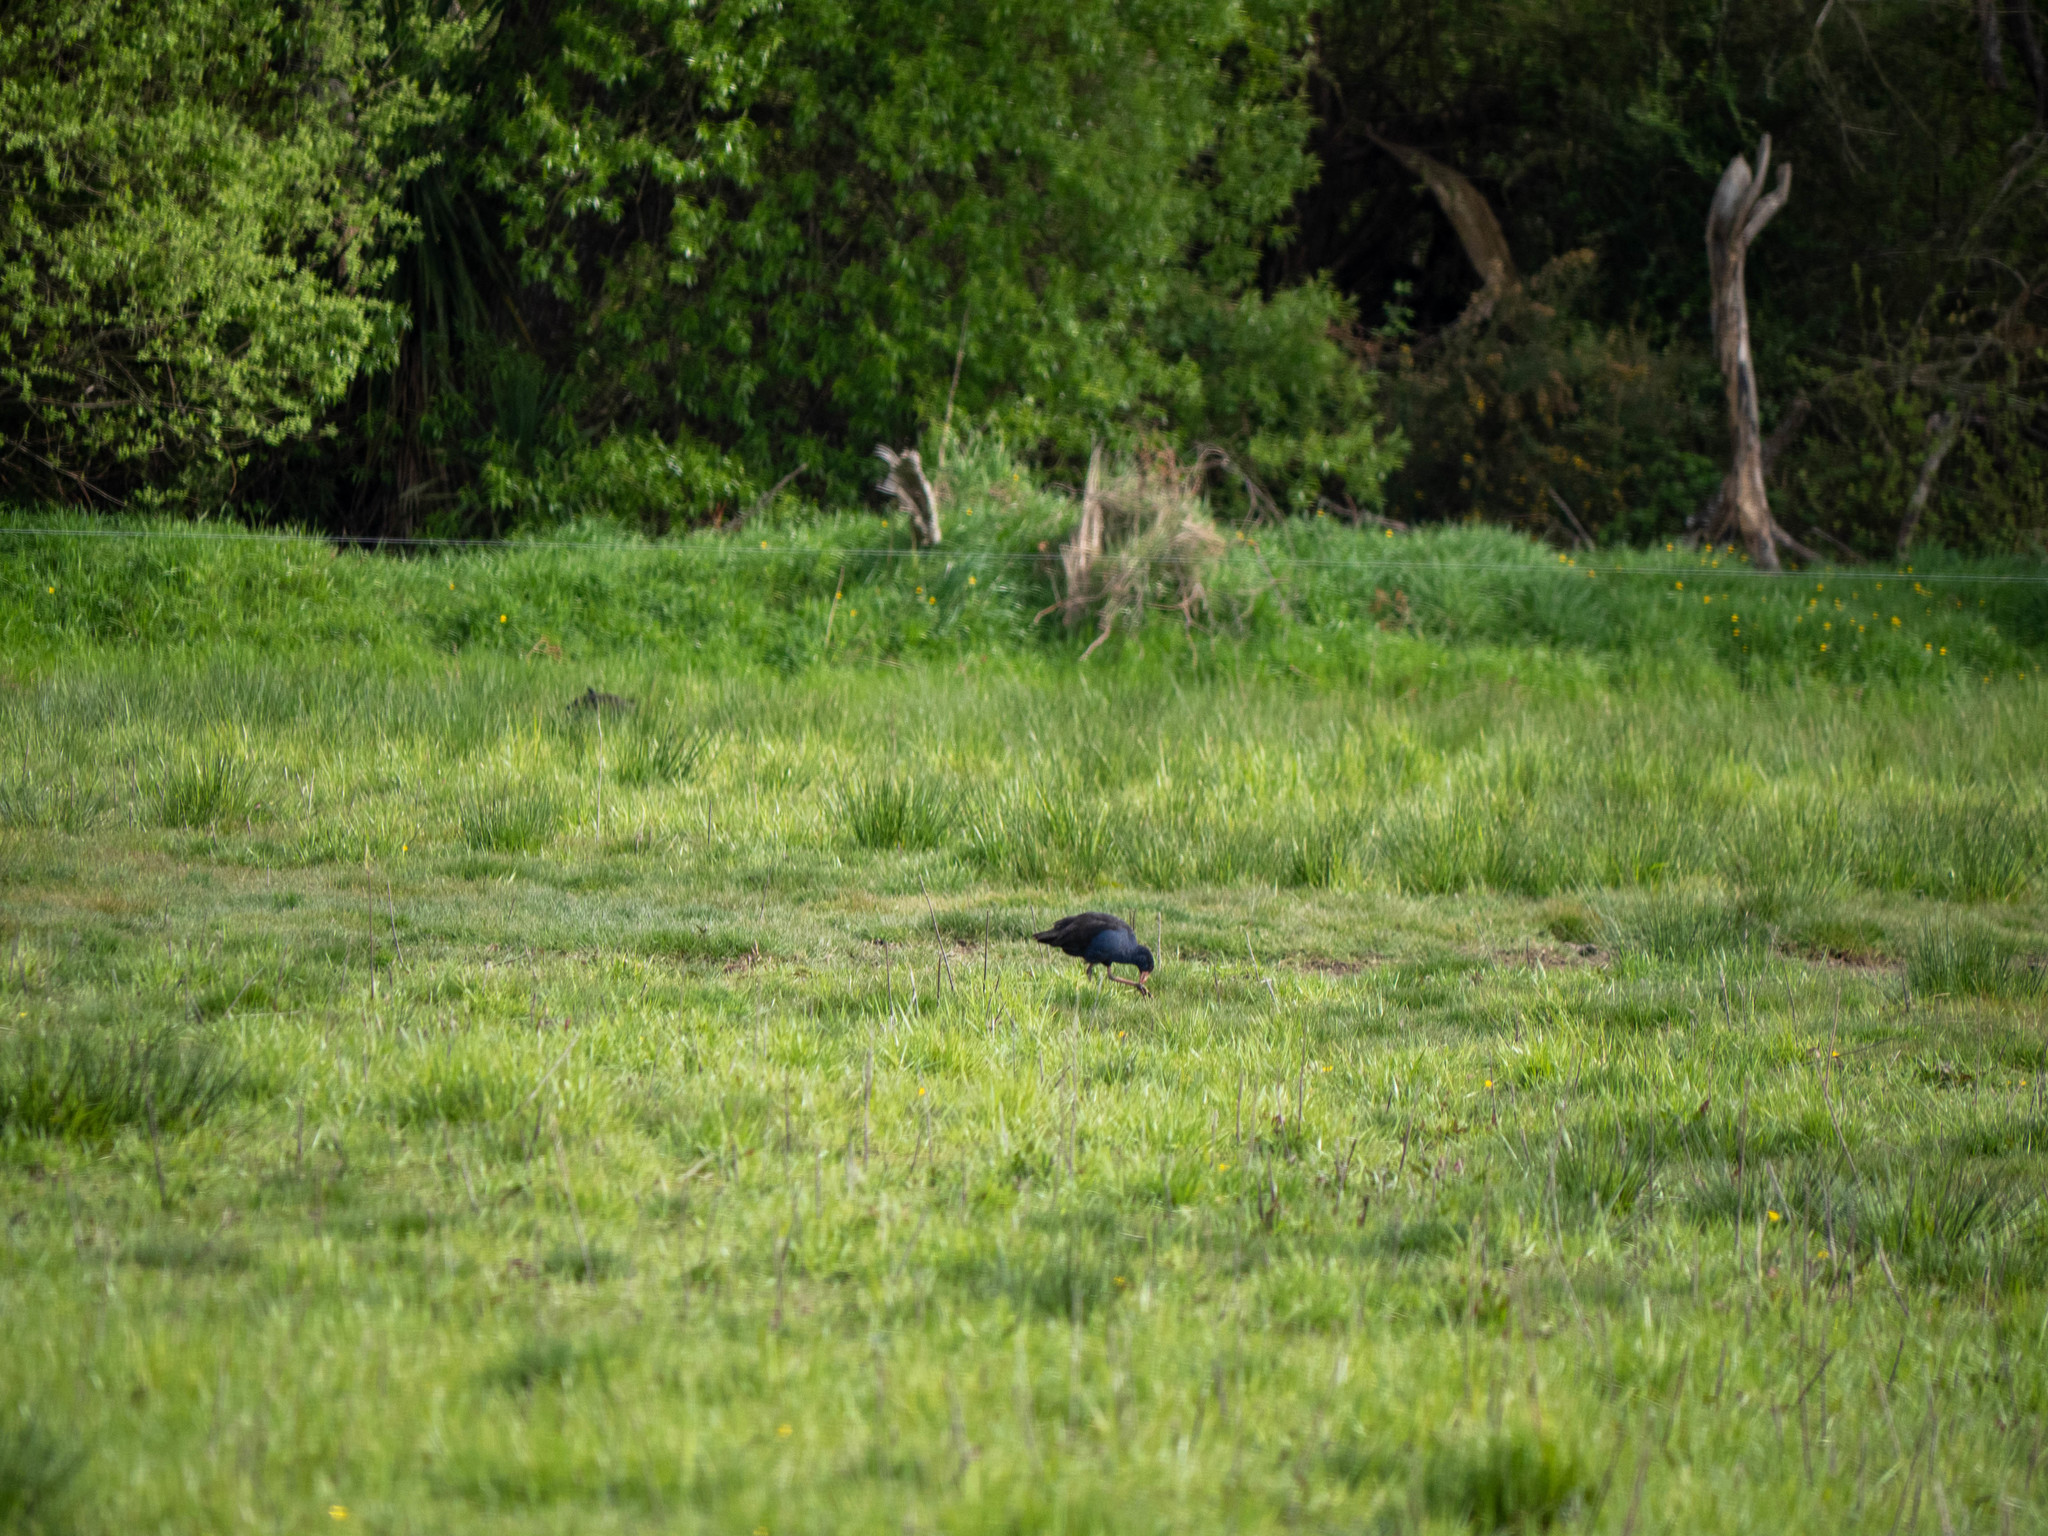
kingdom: Animalia
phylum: Chordata
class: Aves
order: Gruiformes
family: Rallidae
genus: Porphyrio
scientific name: Porphyrio melanotus
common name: Australasian swamphen
